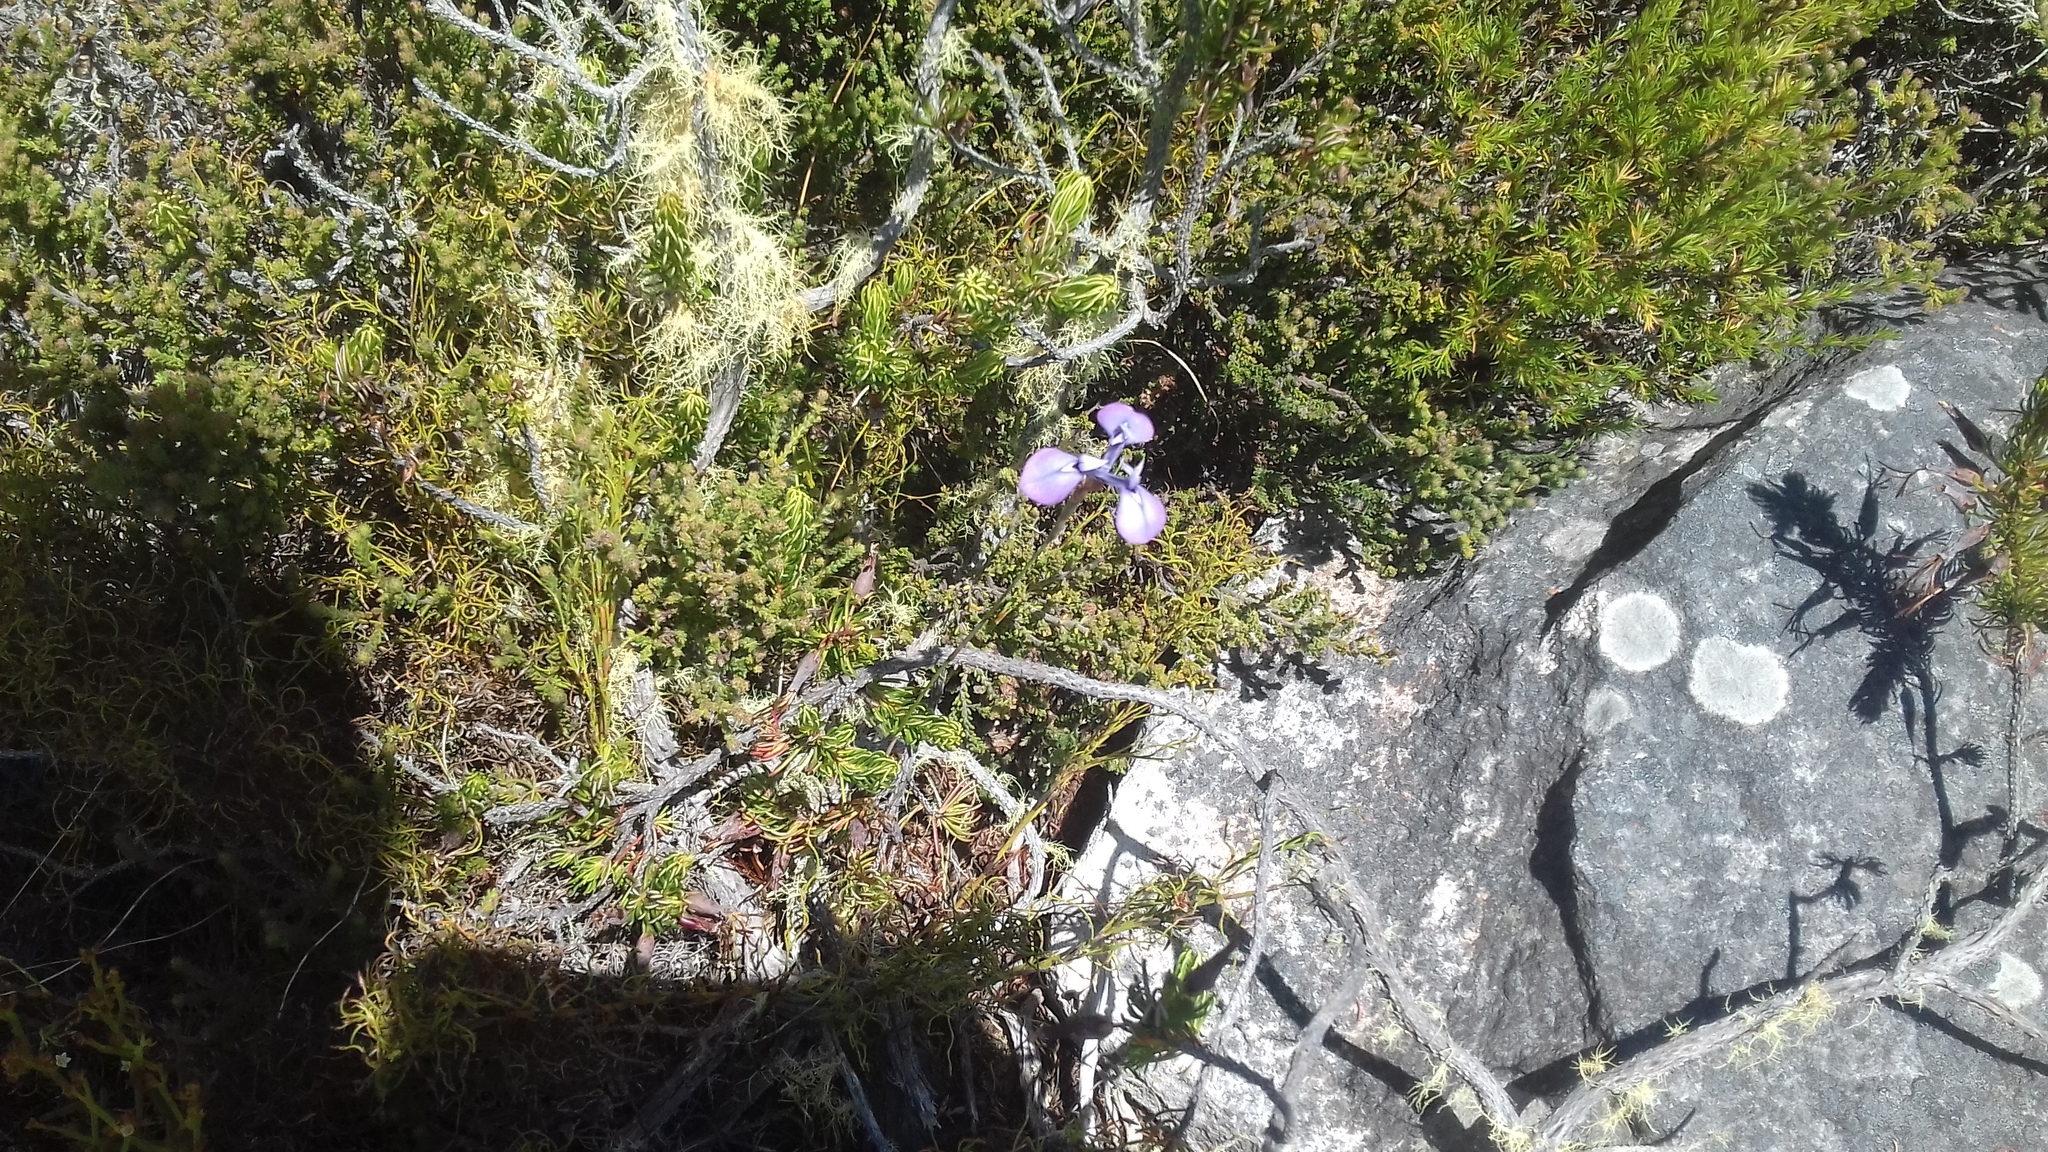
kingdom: Plantae
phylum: Tracheophyta
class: Liliopsida
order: Asparagales
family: Iridaceae
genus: Moraea
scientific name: Moraea tripetala
